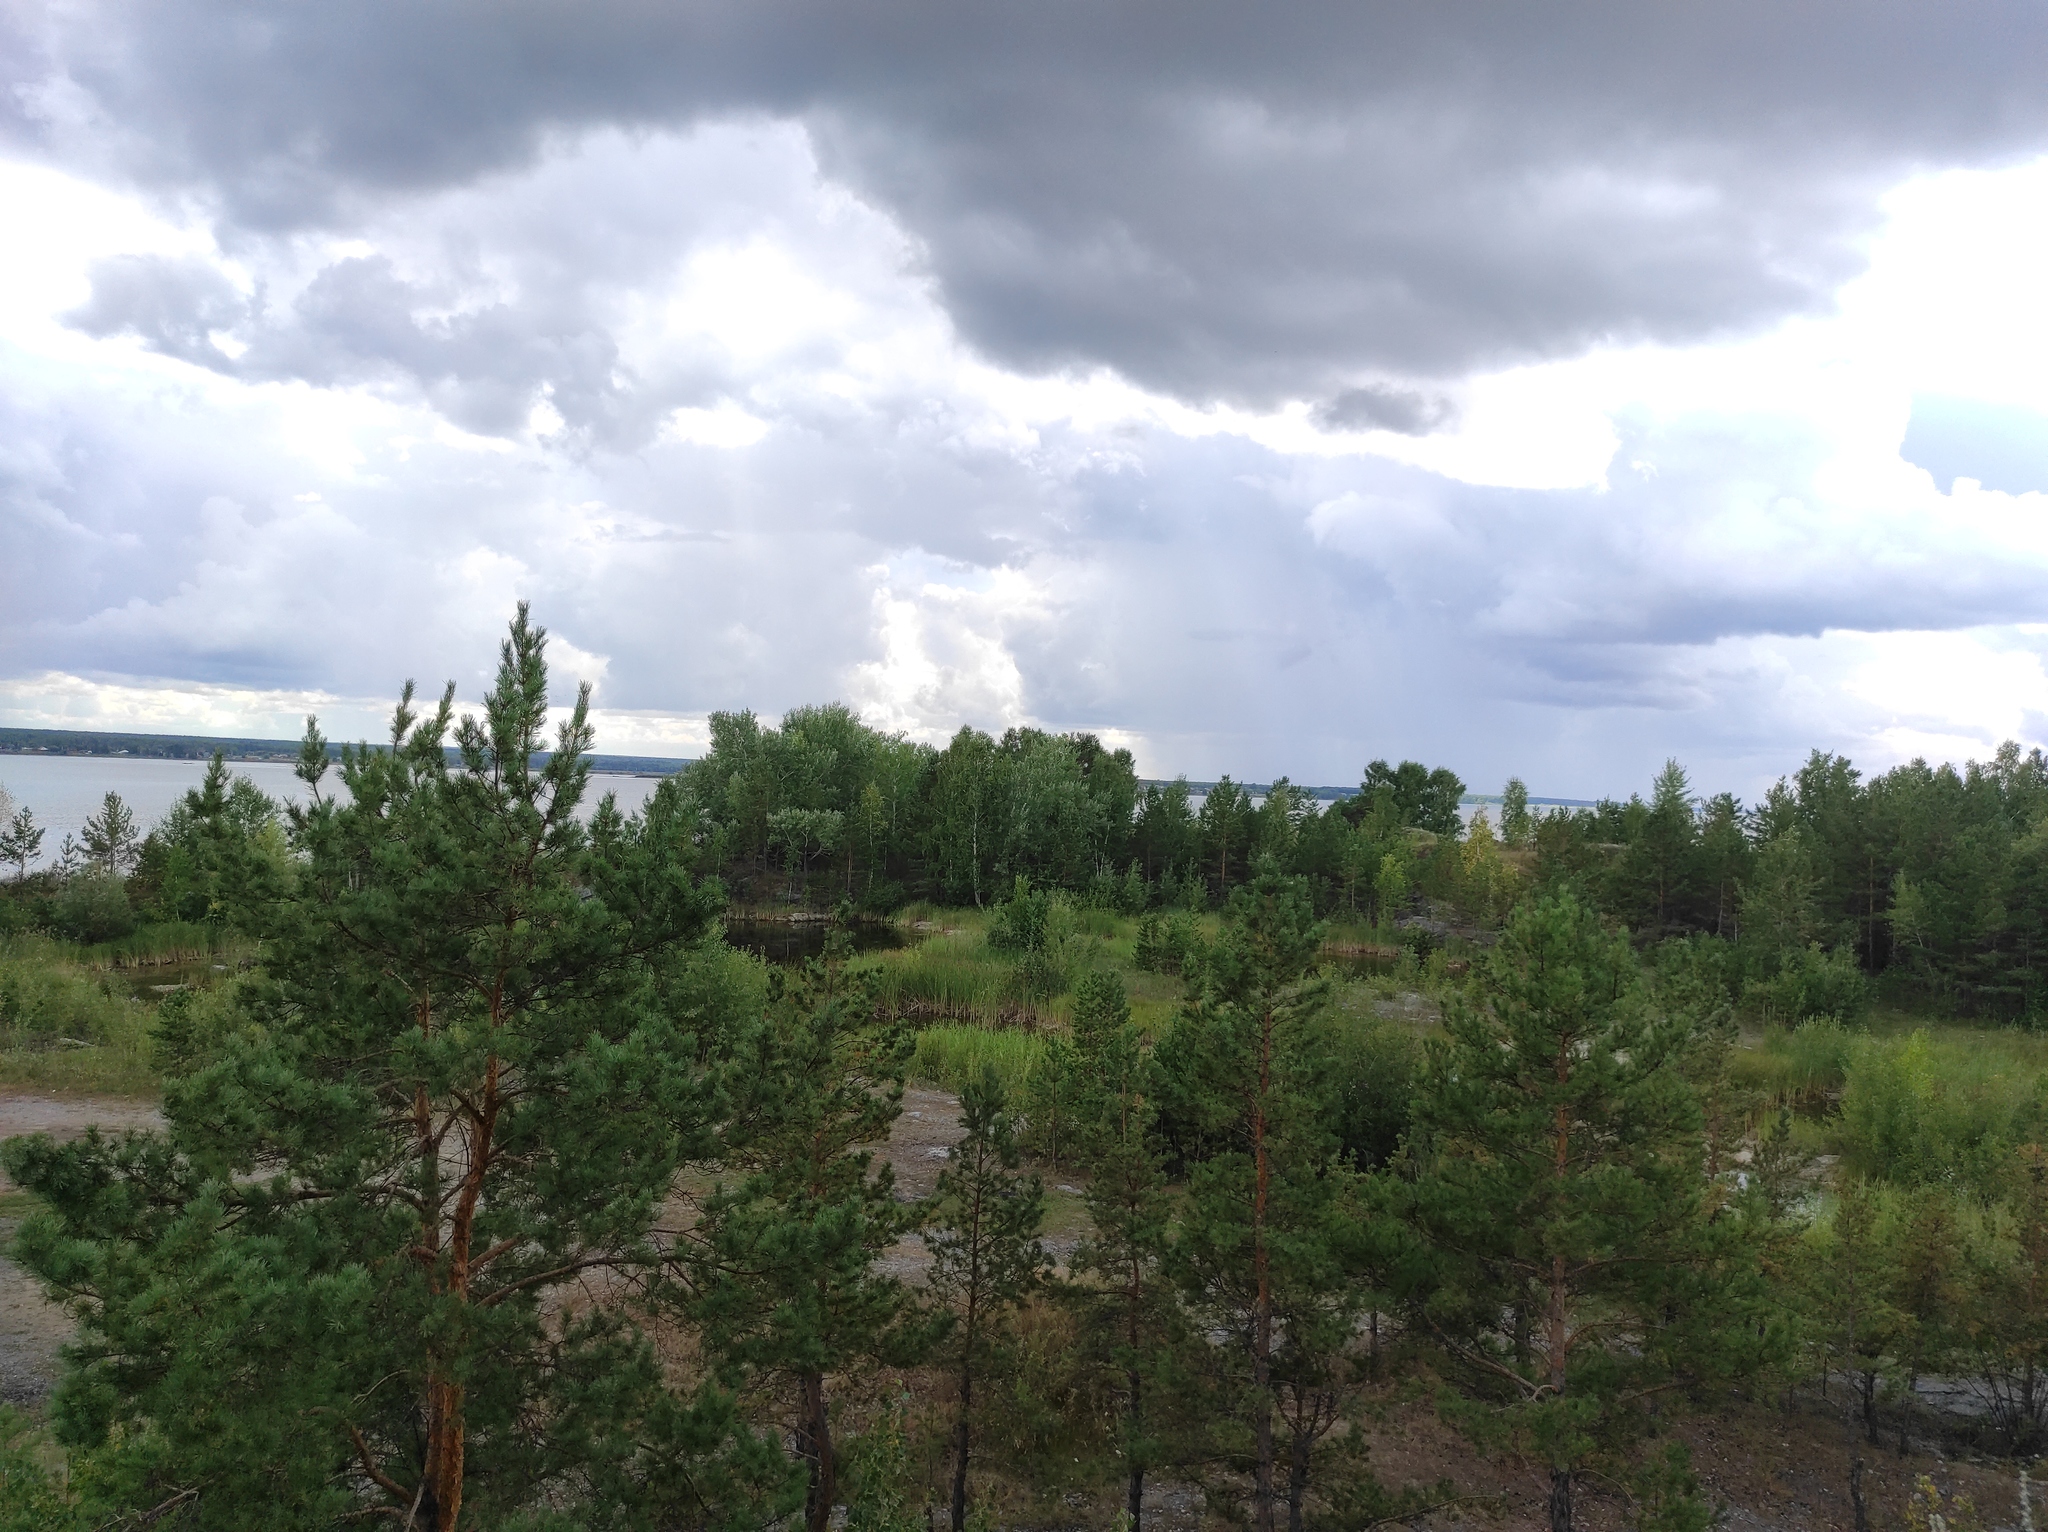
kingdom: Plantae
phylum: Tracheophyta
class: Pinopsida
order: Pinales
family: Pinaceae
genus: Pinus
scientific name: Pinus sylvestris
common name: Scots pine
